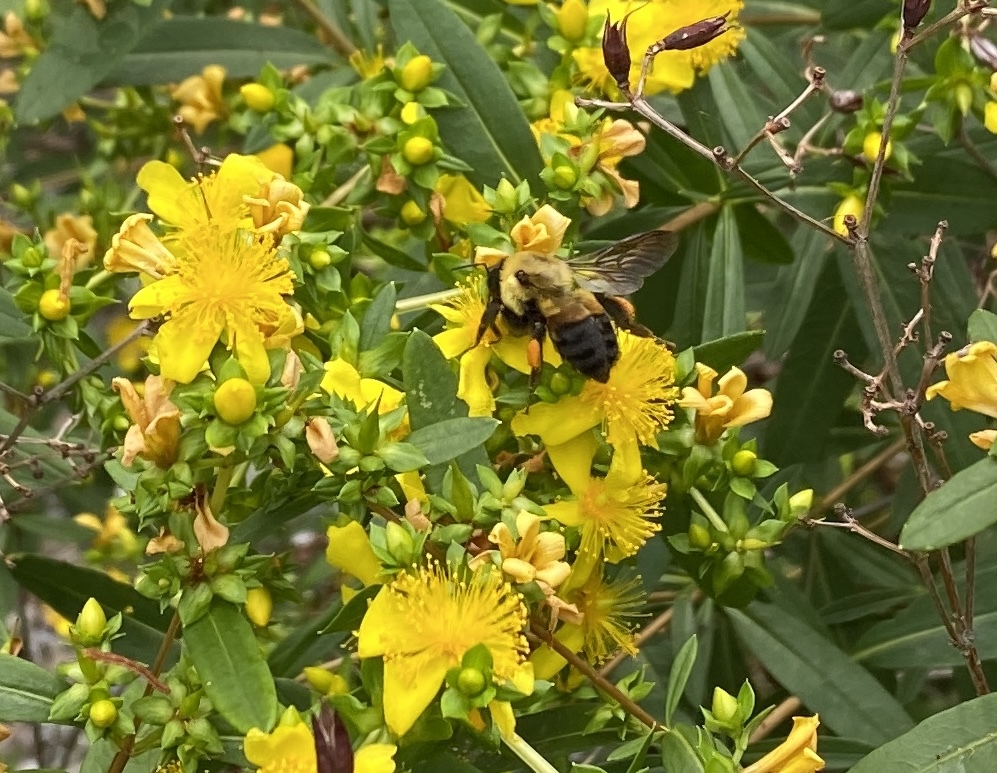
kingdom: Animalia
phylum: Arthropoda
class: Insecta
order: Hymenoptera
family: Apidae
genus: Bombus
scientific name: Bombus griseocollis
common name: Brown-belted bumble bee
